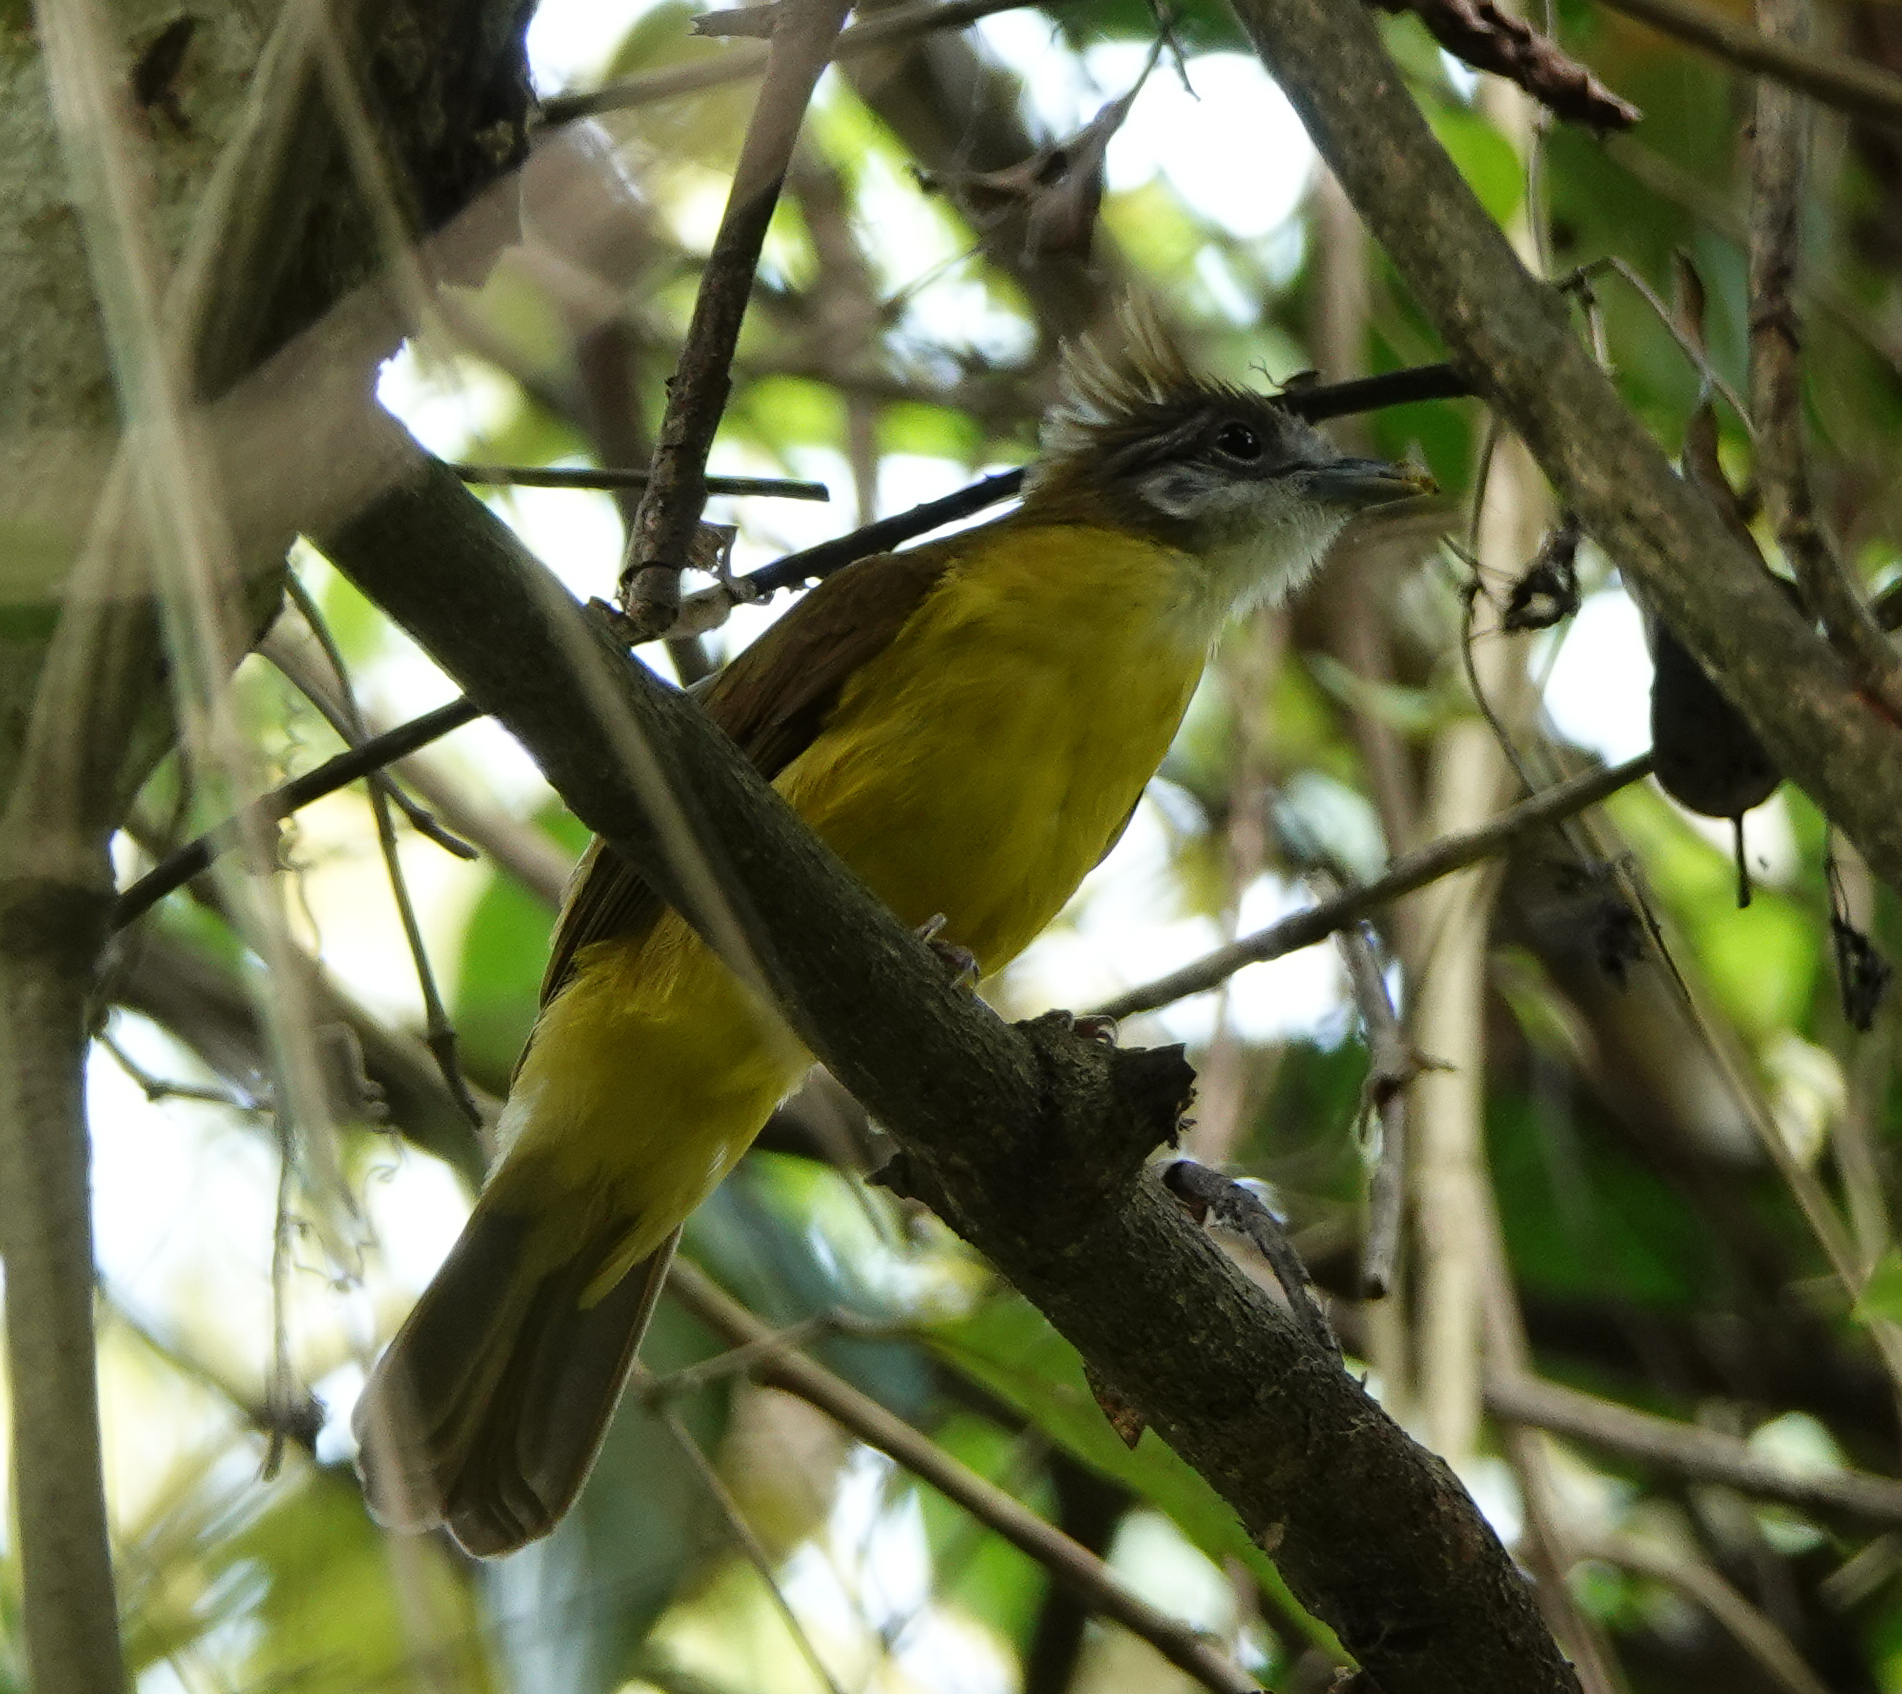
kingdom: Animalia
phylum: Chordata
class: Aves
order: Passeriformes
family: Pycnonotidae
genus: Alophoixus
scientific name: Alophoixus flaveolus
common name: White-throated bulbul
